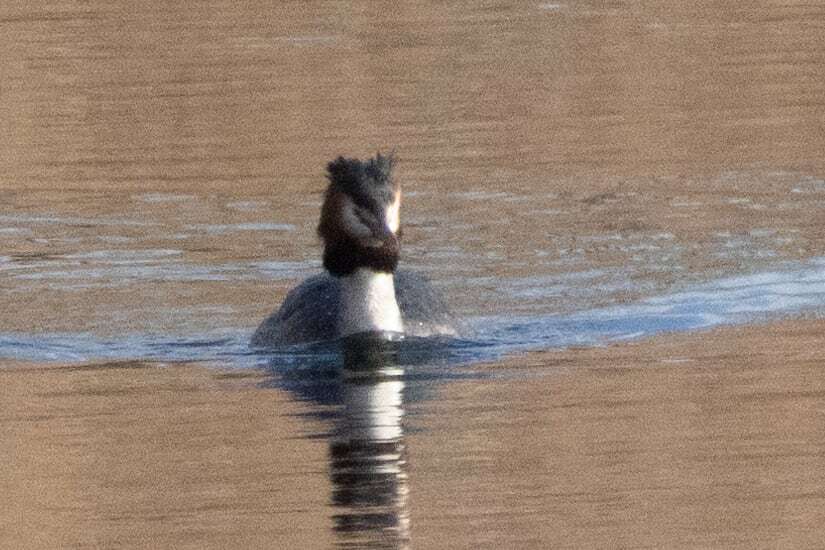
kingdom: Animalia
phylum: Chordata
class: Aves
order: Podicipediformes
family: Podicipedidae
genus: Podiceps
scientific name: Podiceps cristatus
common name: Great crested grebe
